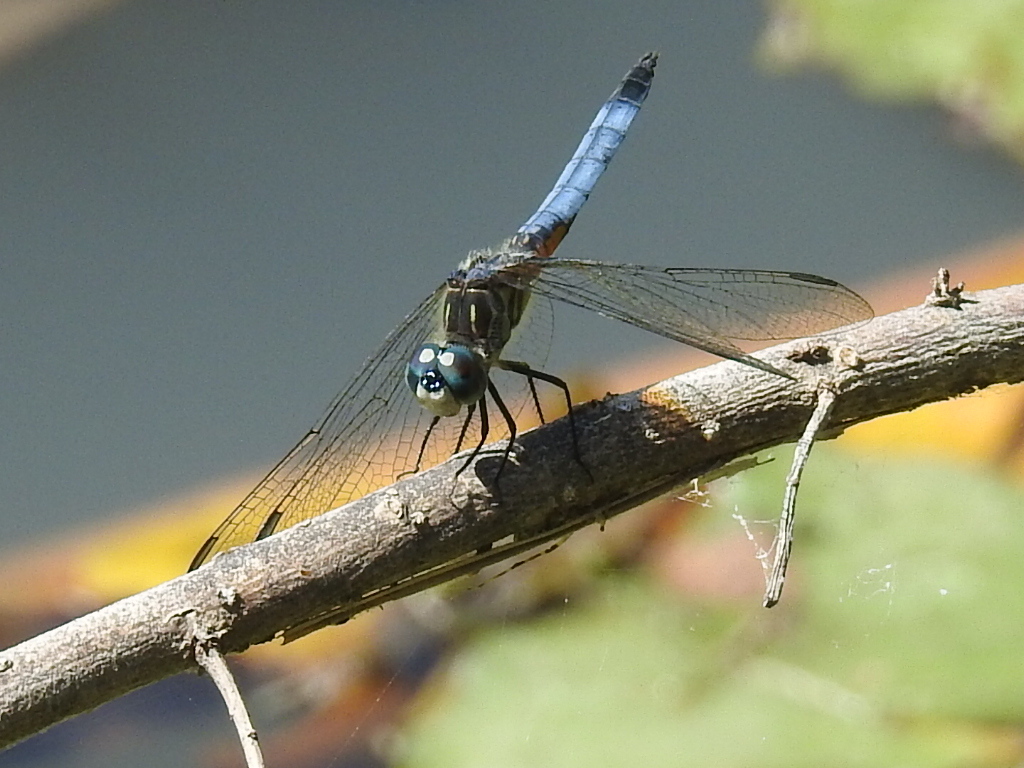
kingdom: Animalia
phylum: Arthropoda
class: Insecta
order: Odonata
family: Libellulidae
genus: Pachydiplax
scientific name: Pachydiplax longipennis
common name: Blue dasher
